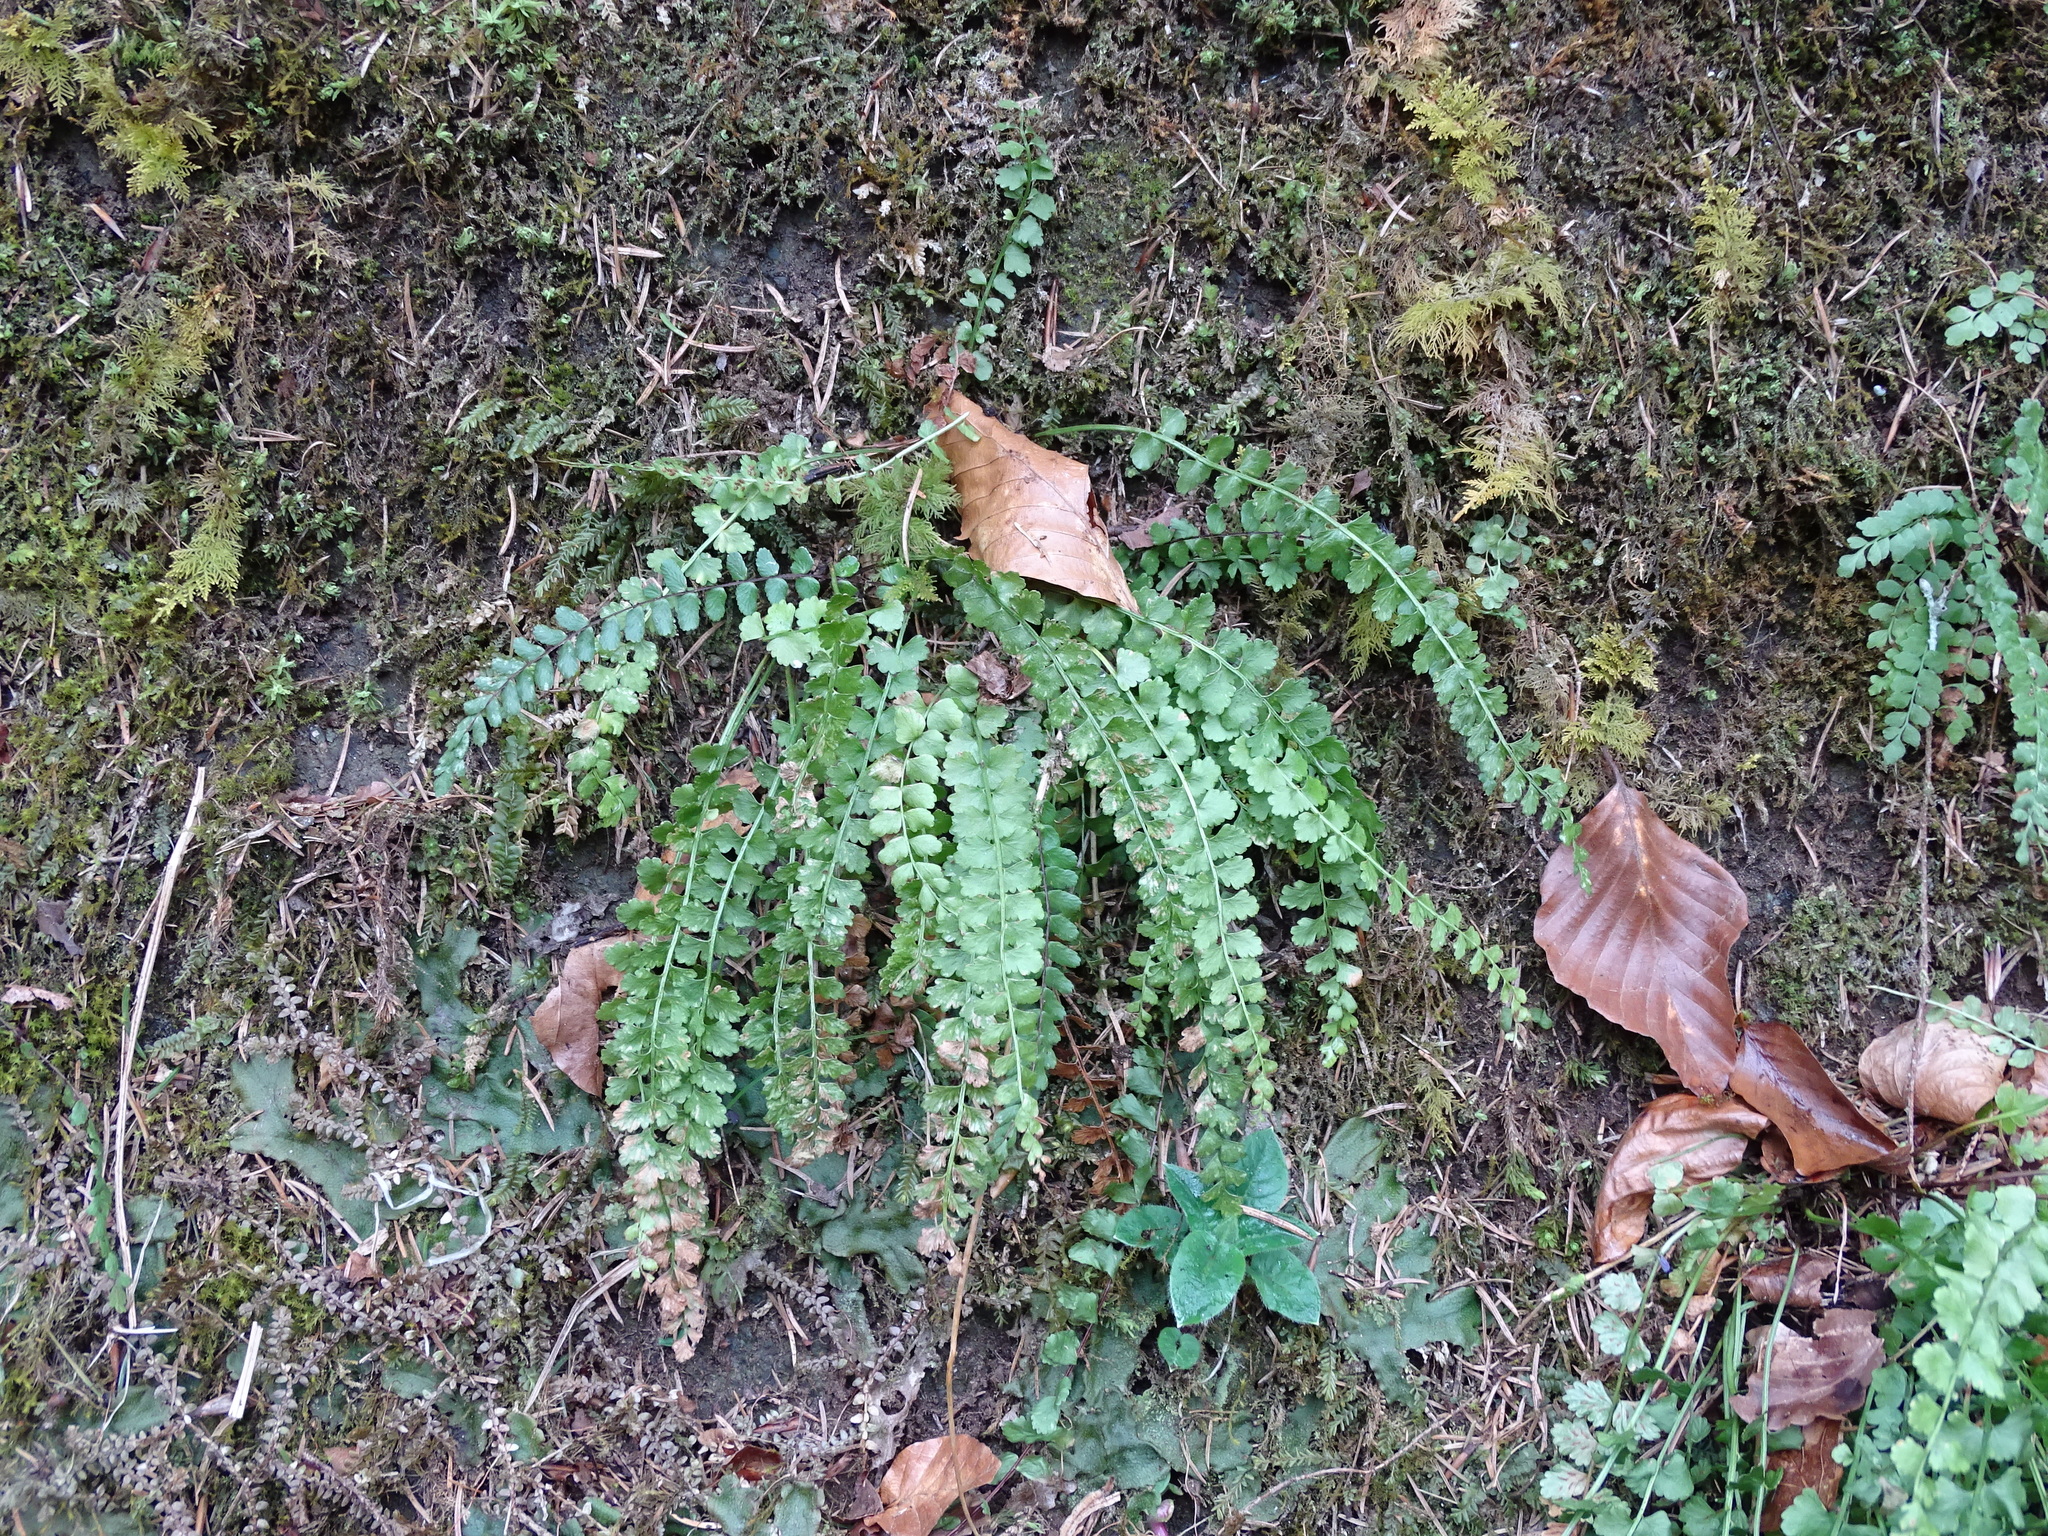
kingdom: Plantae
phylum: Tracheophyta
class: Polypodiopsida
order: Polypodiales
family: Aspleniaceae
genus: Asplenium
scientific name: Asplenium viride
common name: Green spleenwort
